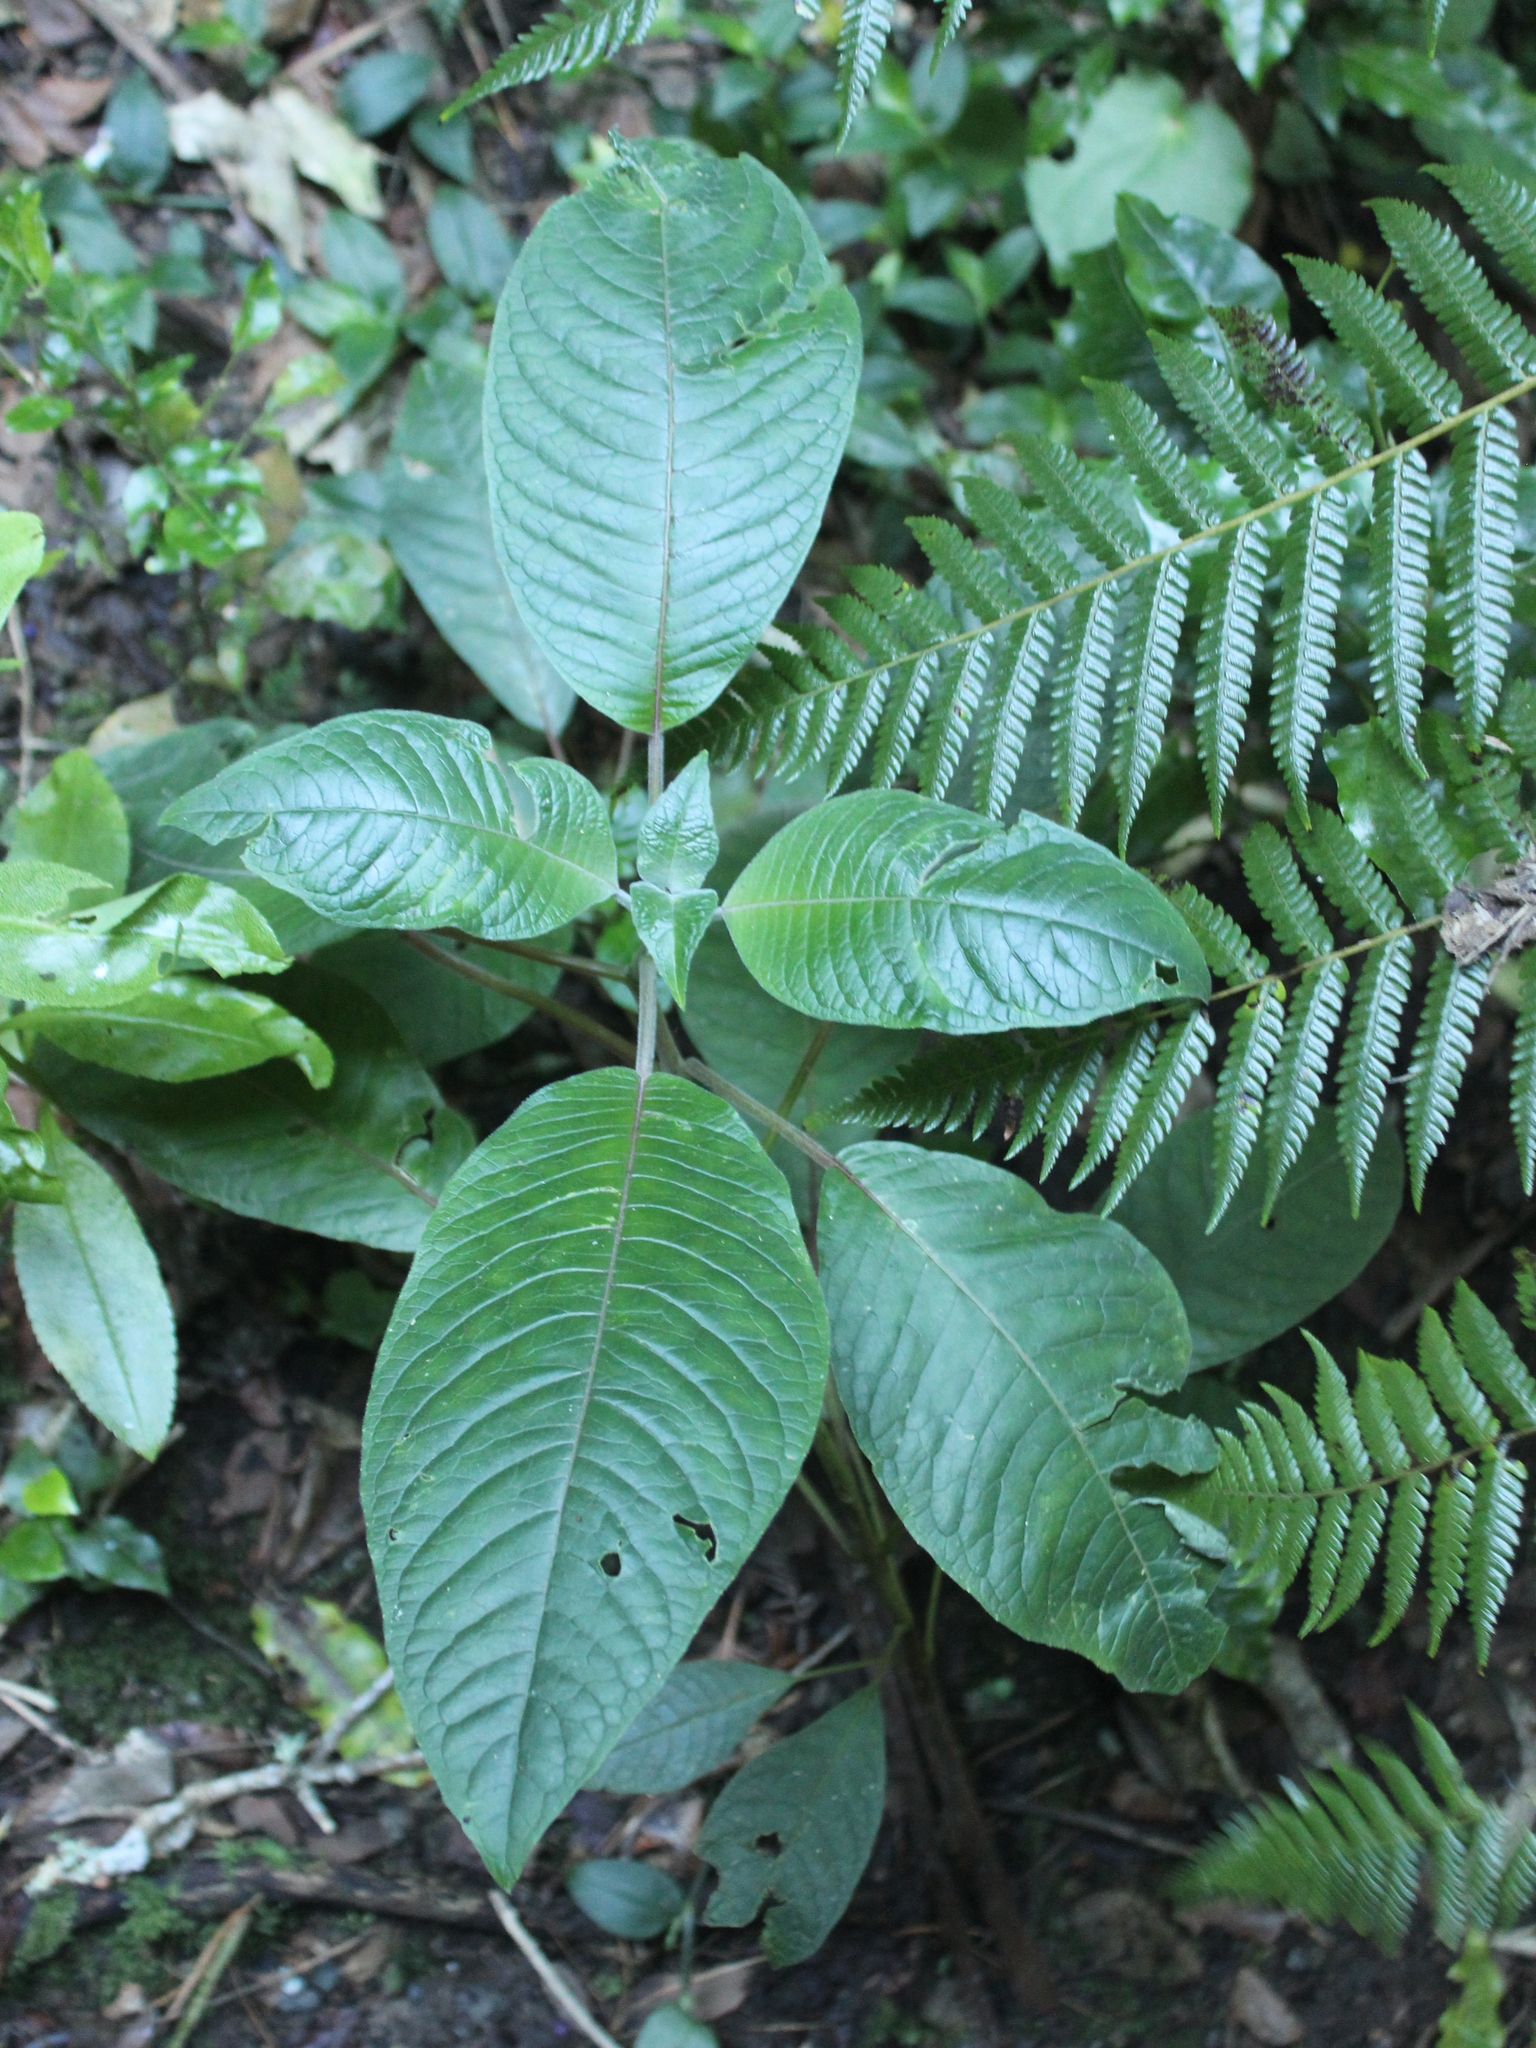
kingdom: Plantae
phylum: Tracheophyta
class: Magnoliopsida
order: Myrtales
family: Onagraceae
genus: Fuchsia
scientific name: Fuchsia boliviana
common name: Bolivian fuchsia
